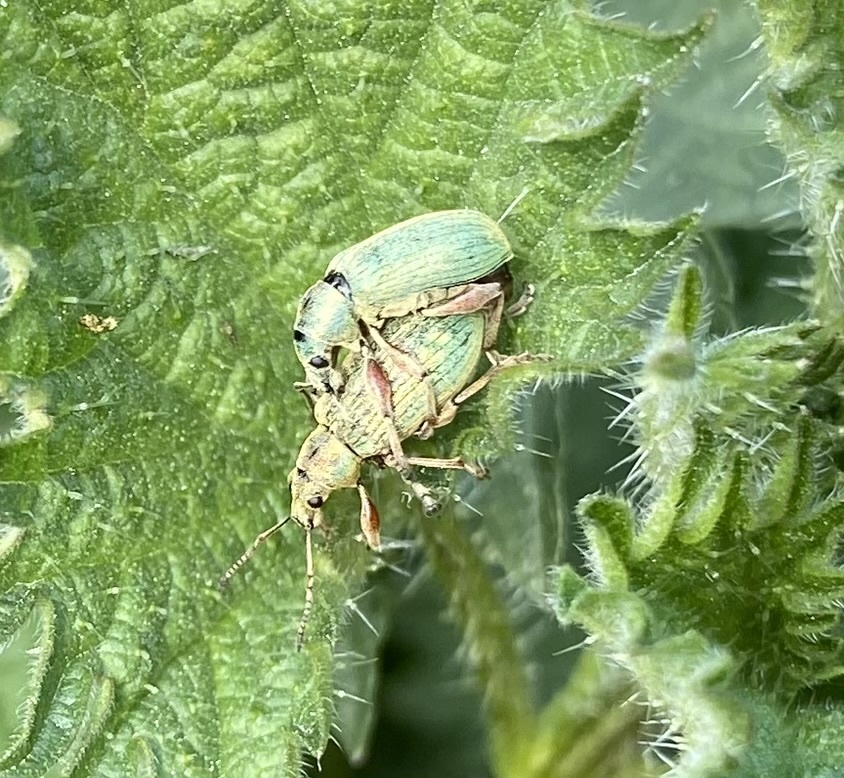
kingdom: Animalia
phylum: Arthropoda
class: Insecta
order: Coleoptera
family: Curculionidae
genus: Phyllobius
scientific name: Phyllobius pomaceus
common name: Green nettle weevil
